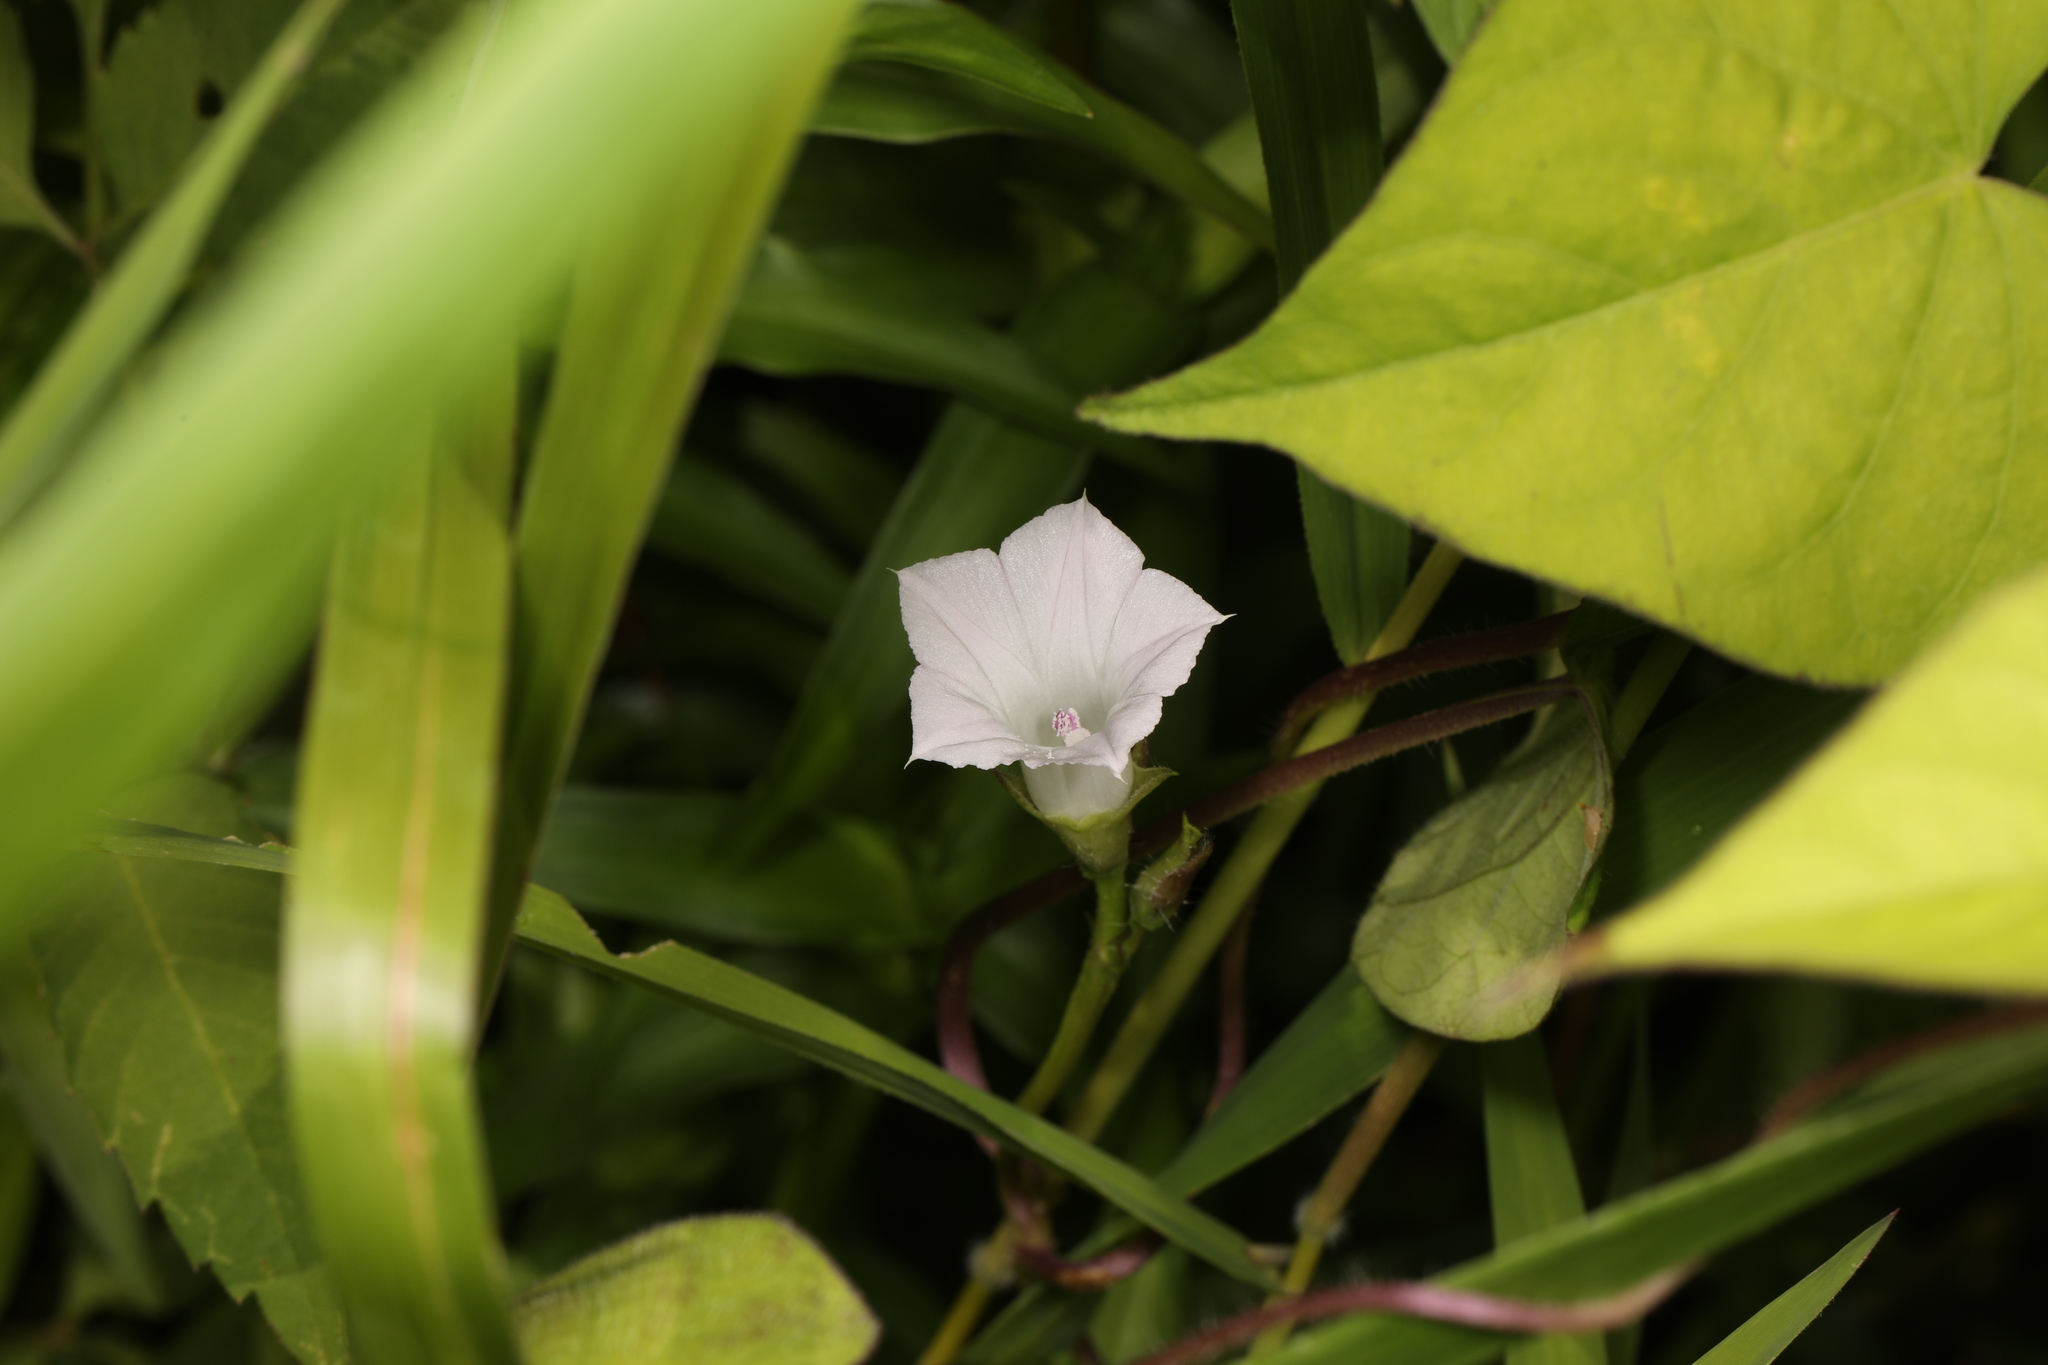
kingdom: Plantae
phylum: Tracheophyta
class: Magnoliopsida
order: Solanales
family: Convolvulaceae
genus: Ipomoea
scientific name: Ipomoea lacunosa
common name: White morning-glory
